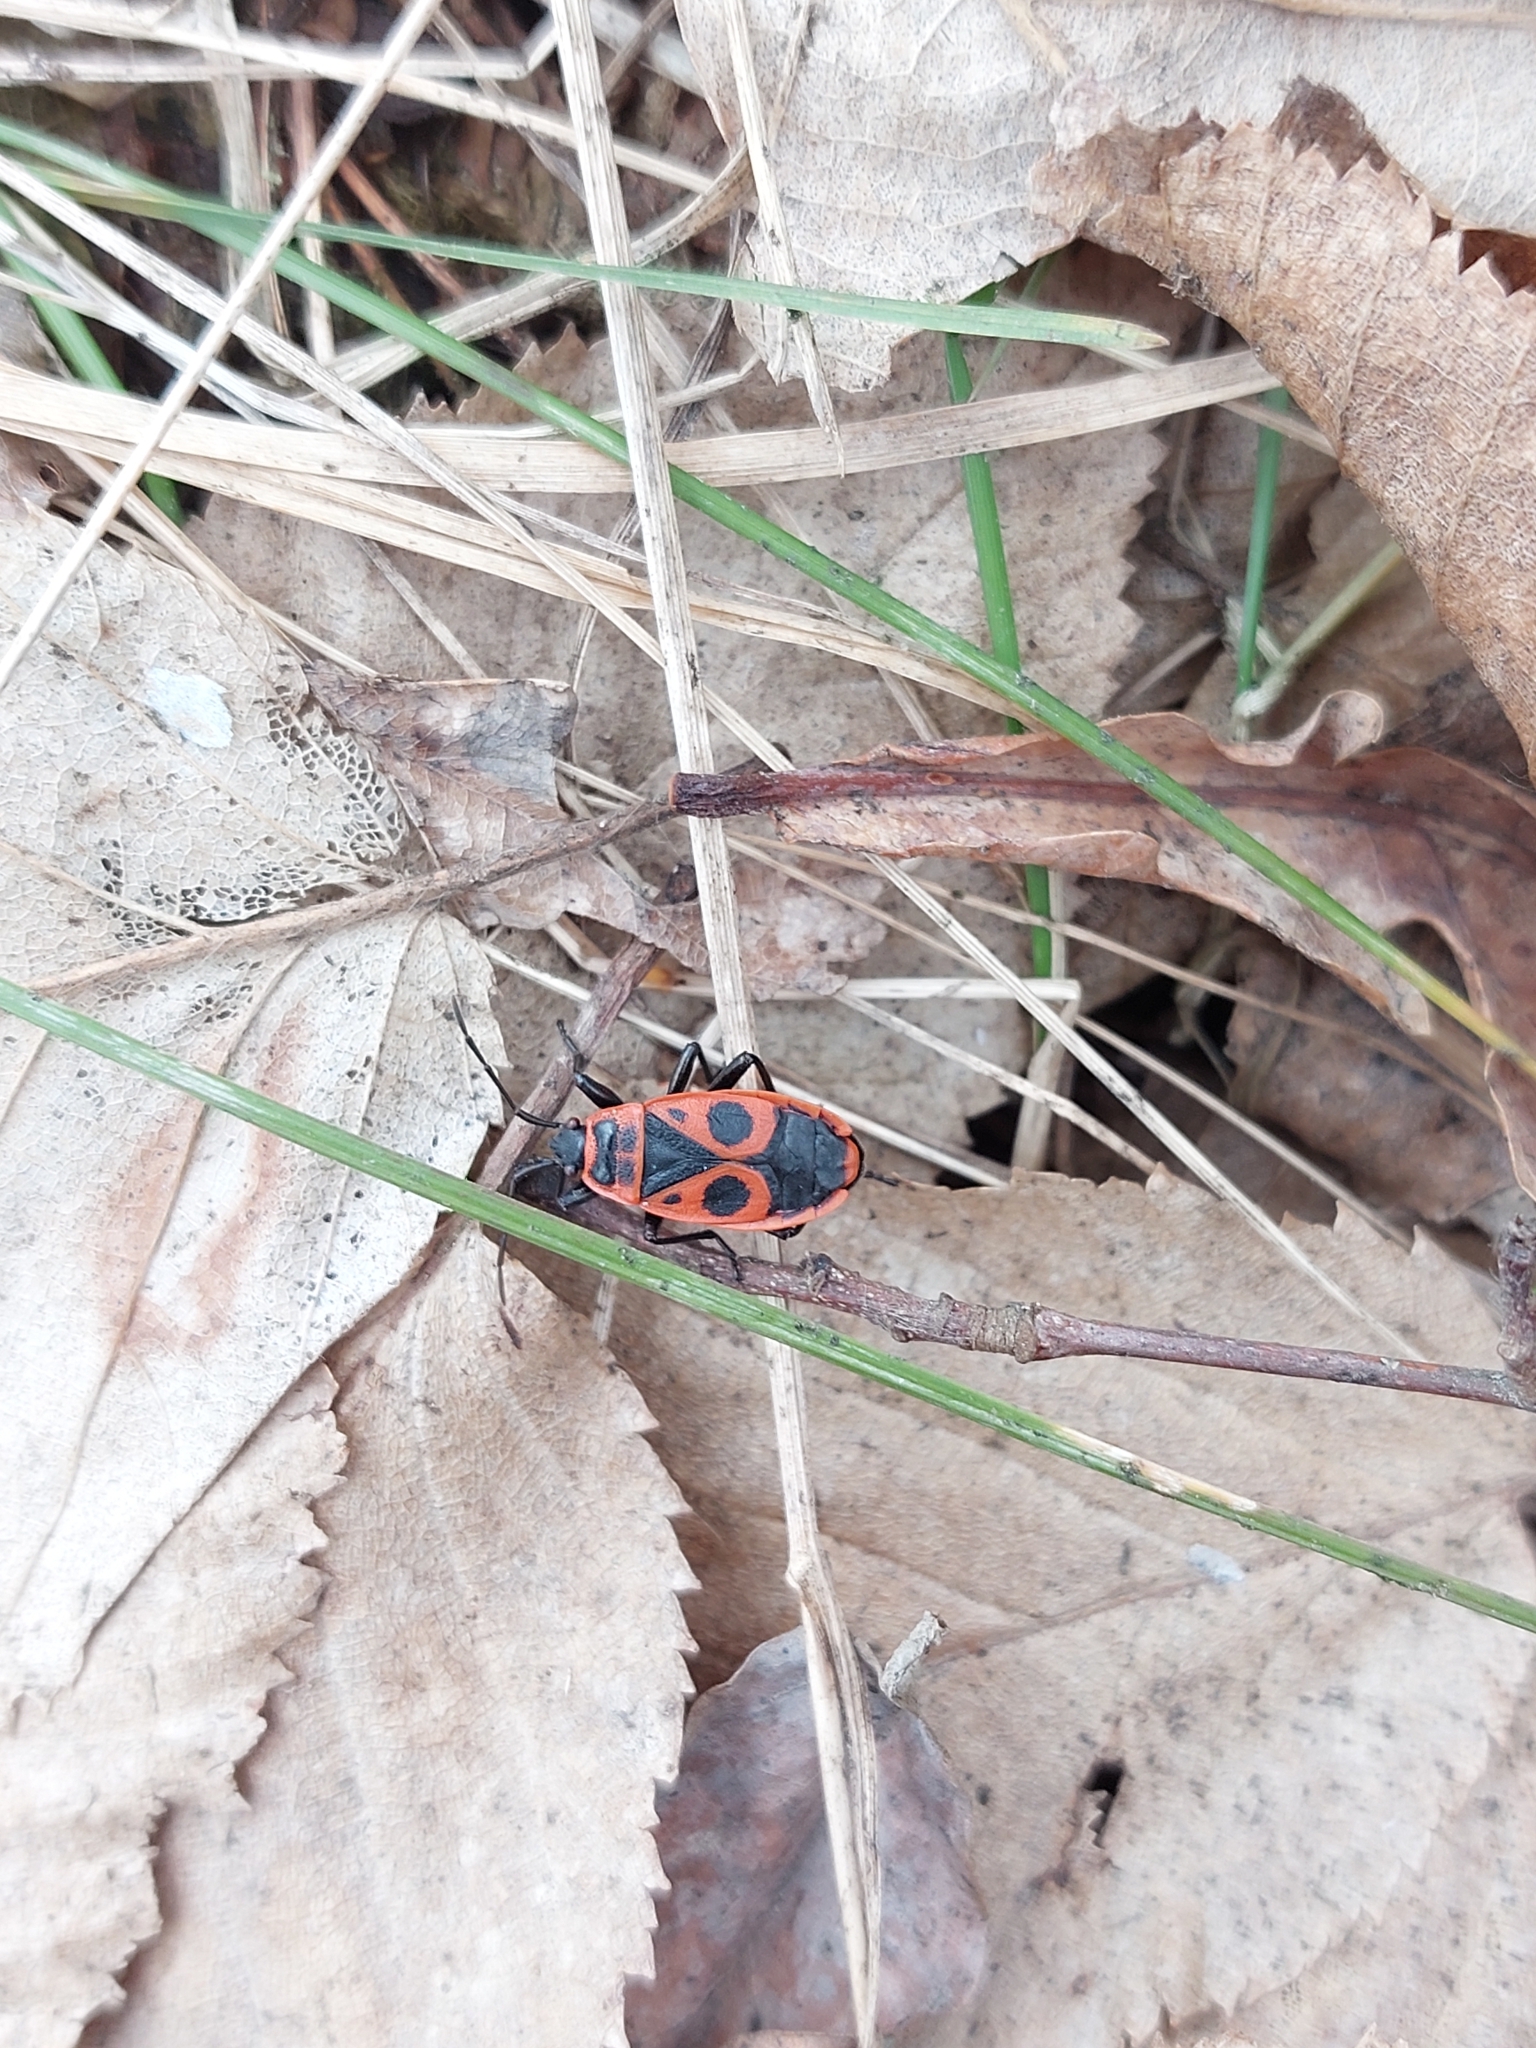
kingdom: Animalia
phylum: Arthropoda
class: Insecta
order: Hemiptera
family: Pyrrhocoridae
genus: Pyrrhocoris
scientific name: Pyrrhocoris apterus
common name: Firebug
